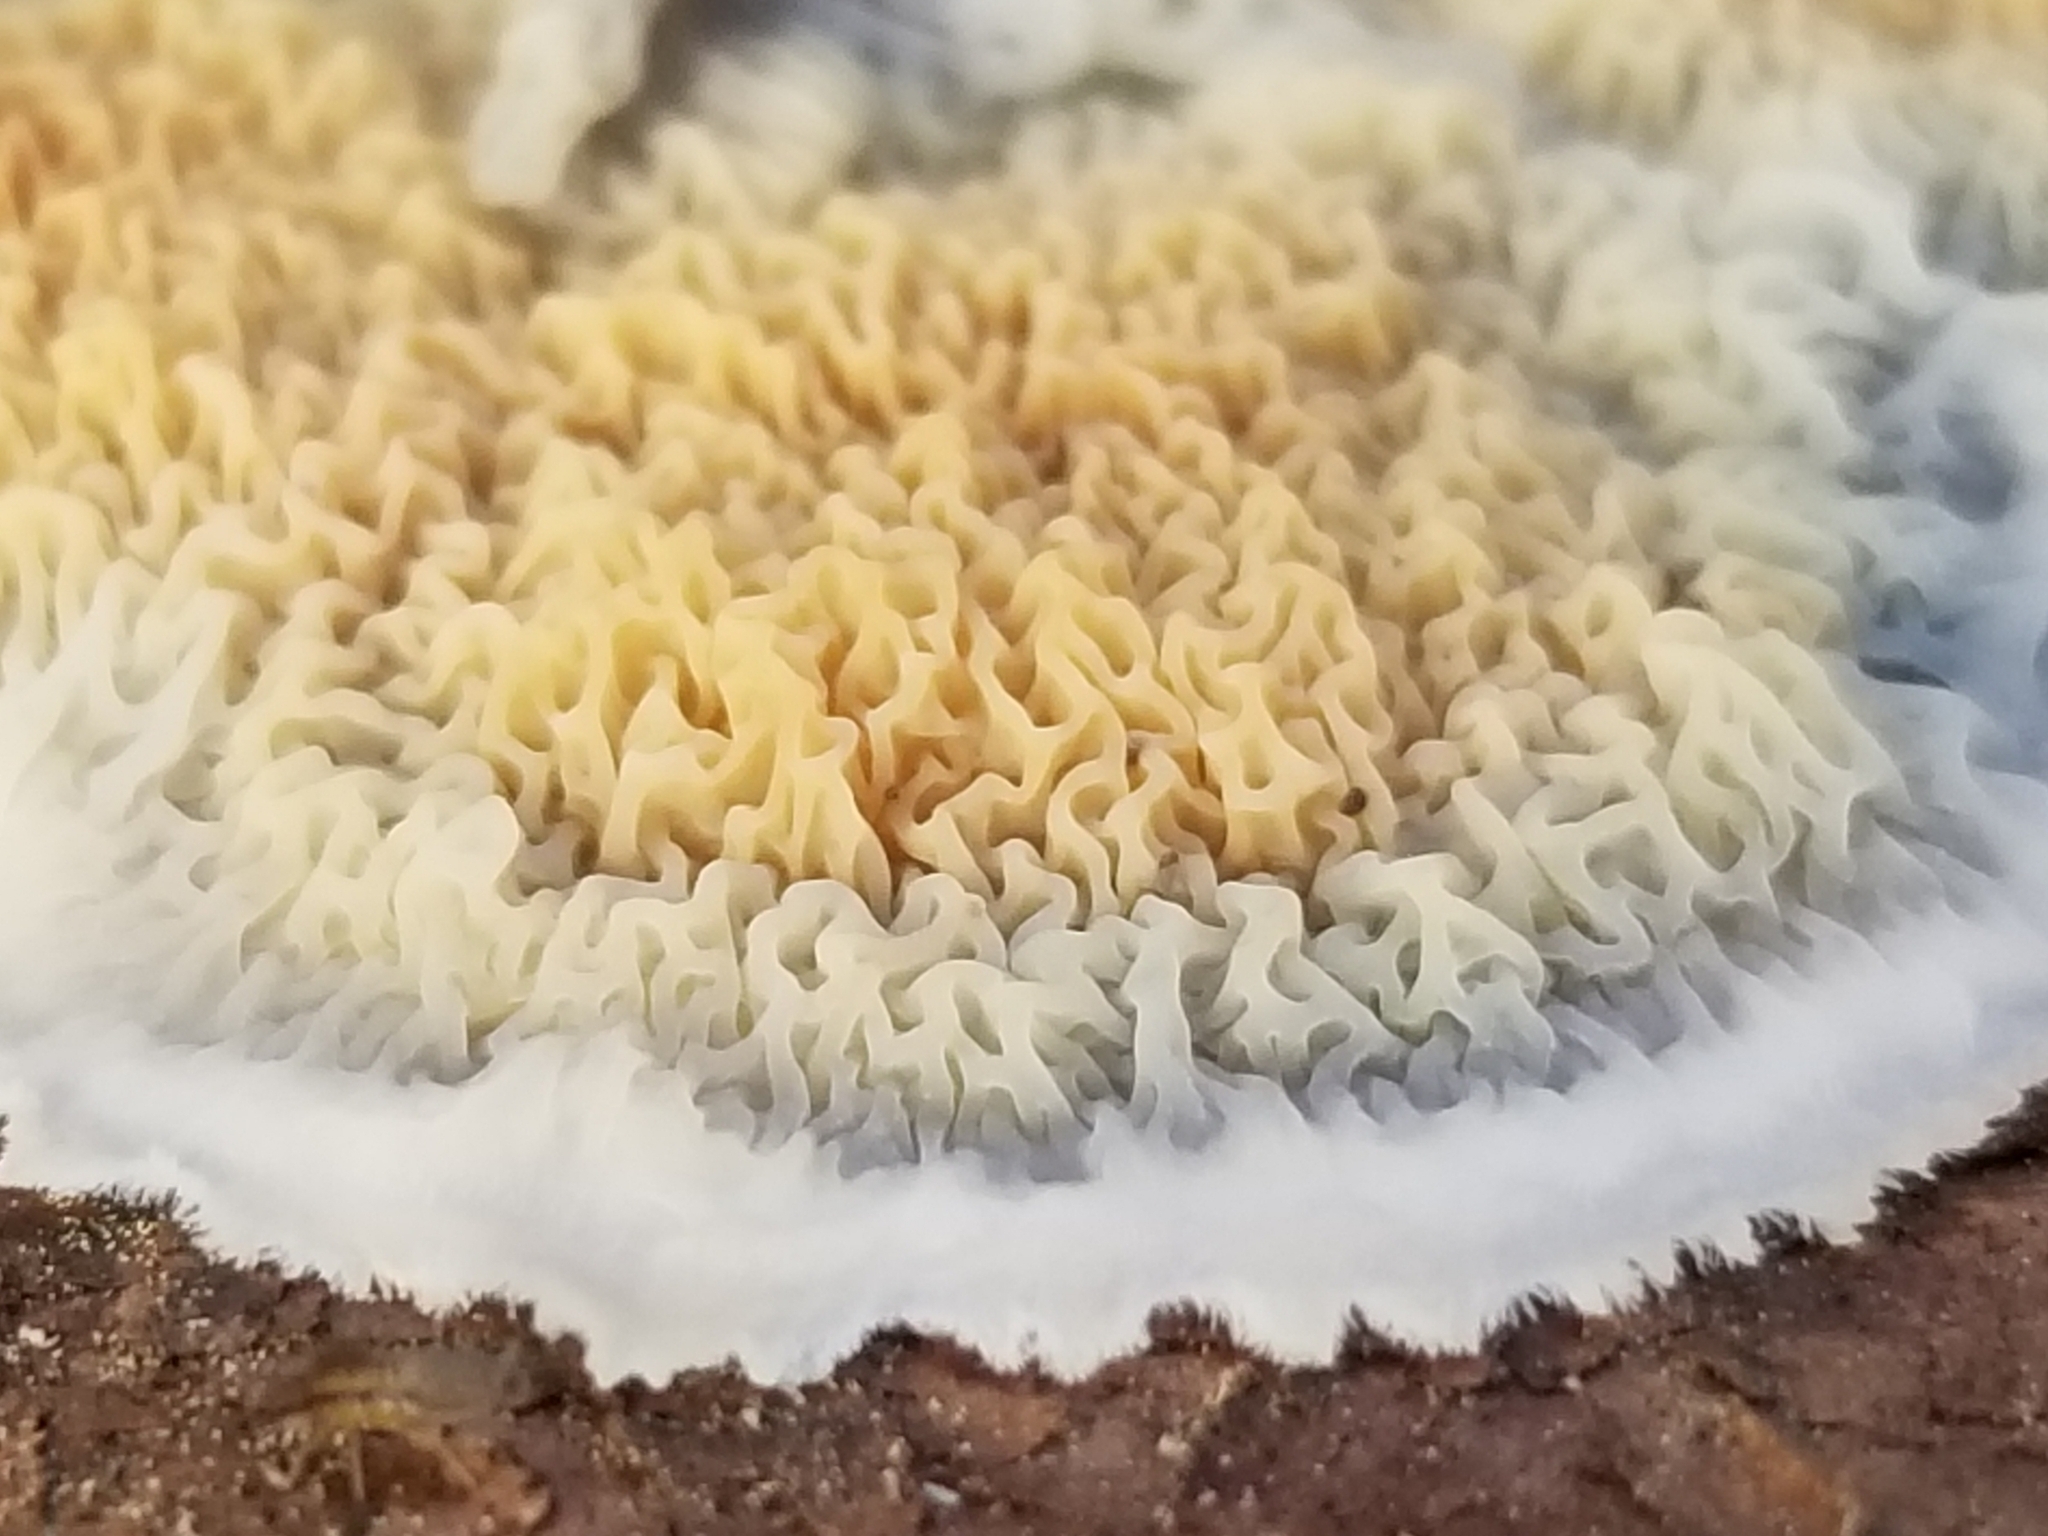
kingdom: Fungi
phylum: Basidiomycota
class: Agaricomycetes
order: Polyporales
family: Meruliaceae
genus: Phlebia
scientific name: Phlebia tremellosa
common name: Jelly rot
